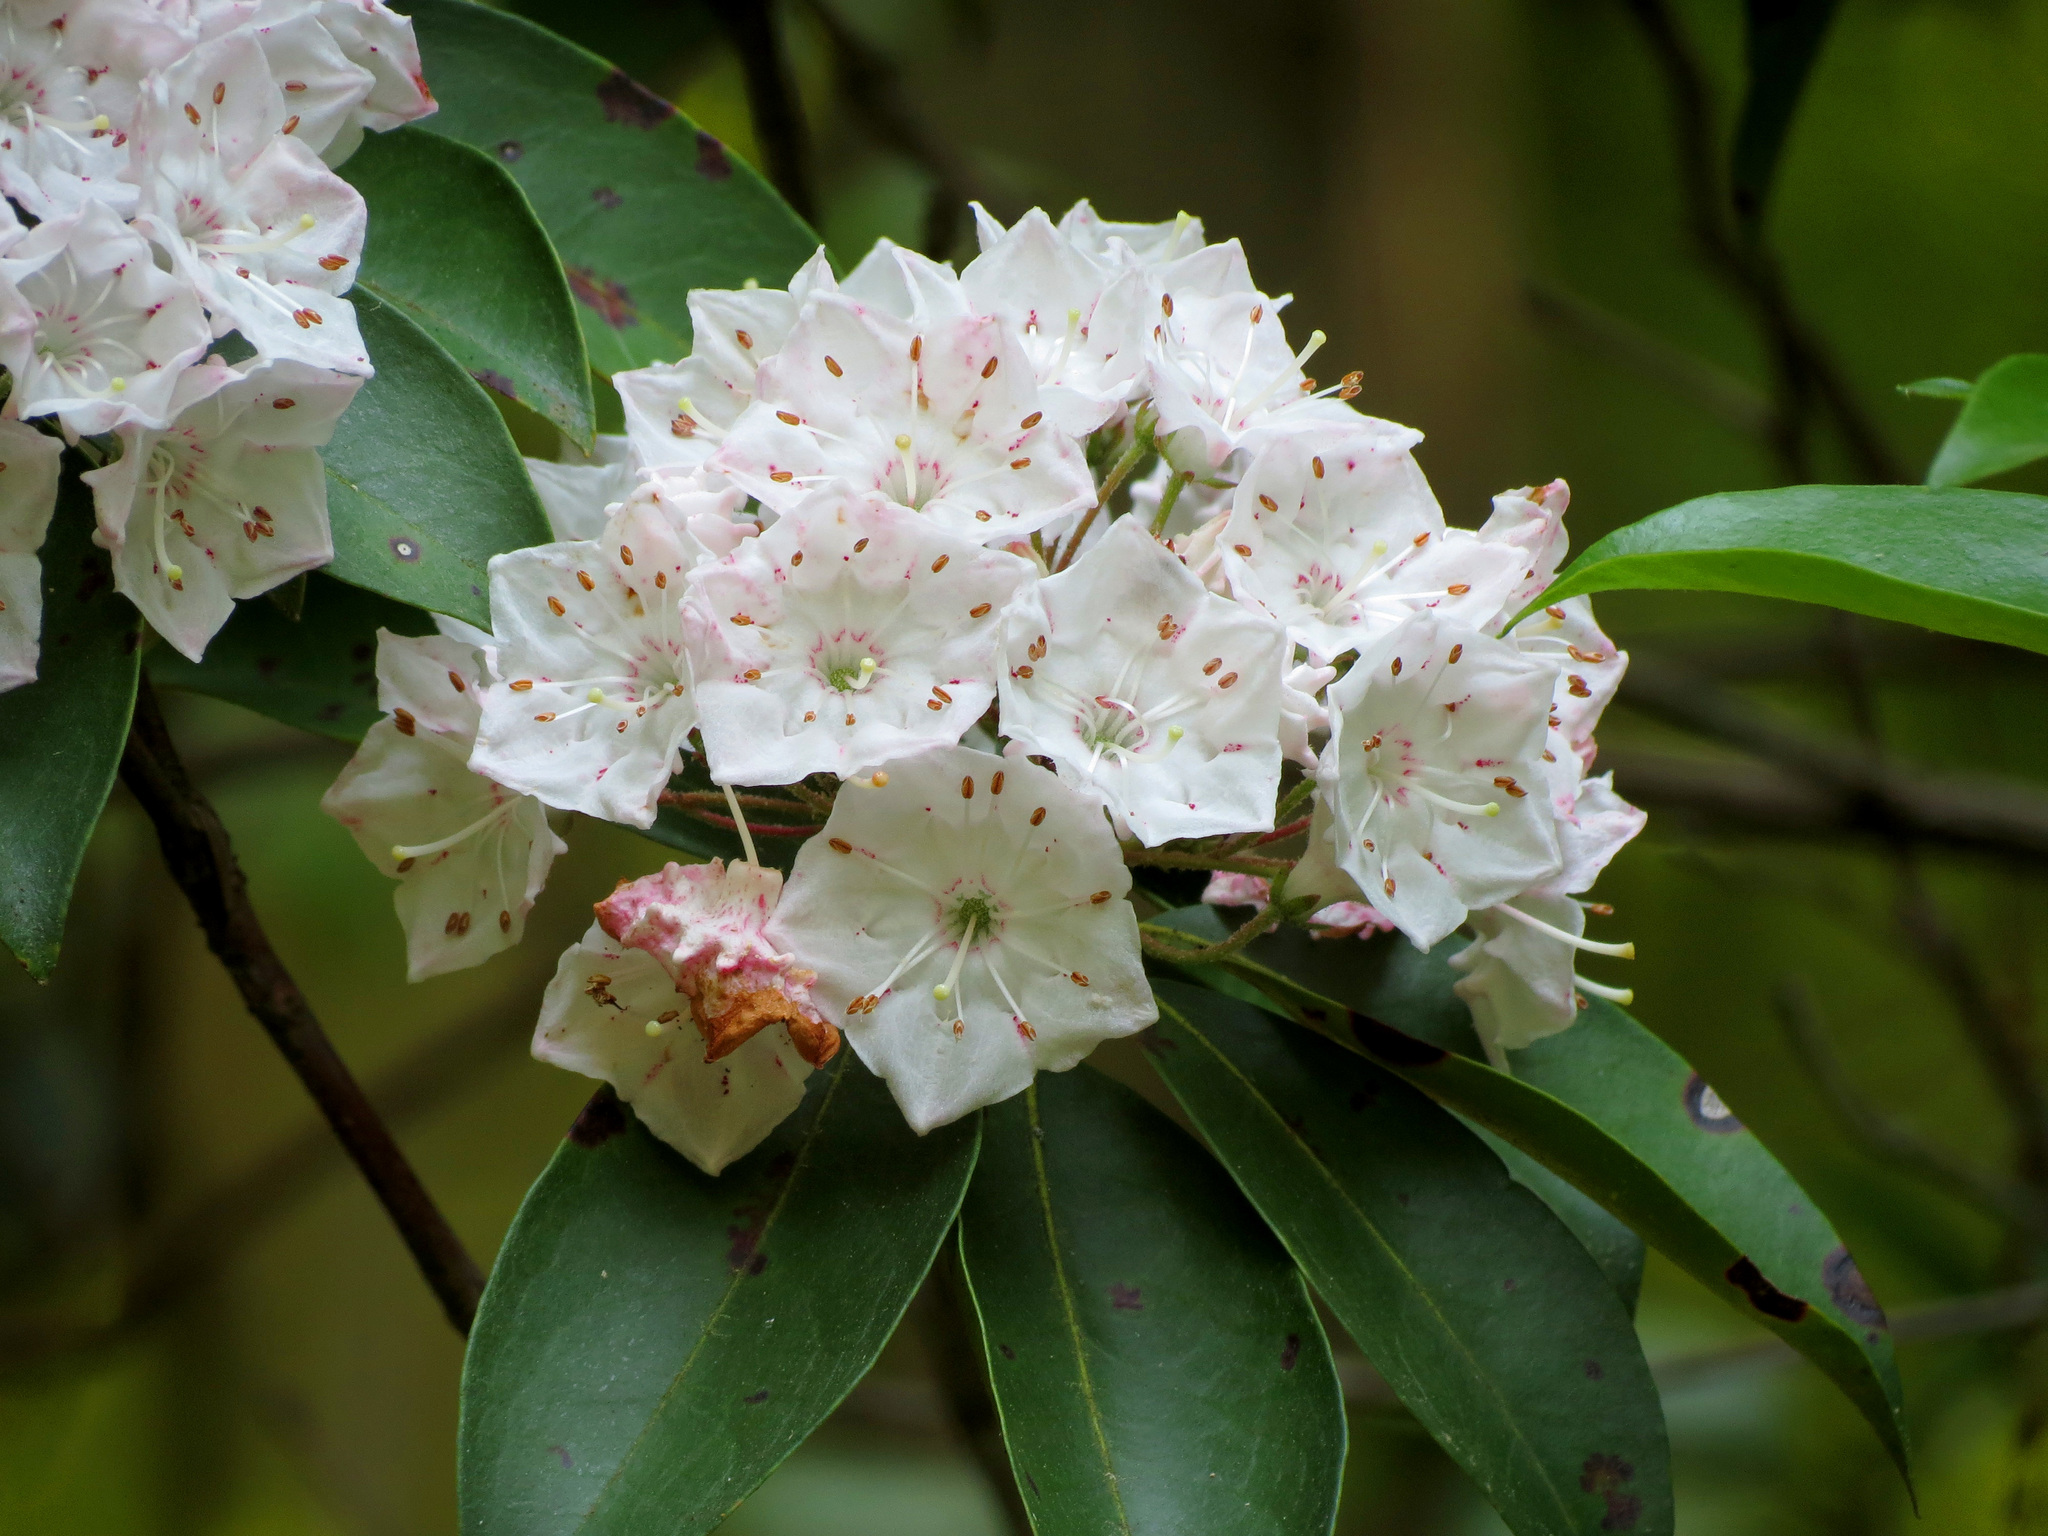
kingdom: Plantae
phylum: Tracheophyta
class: Magnoliopsida
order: Ericales
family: Ericaceae
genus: Kalmia
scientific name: Kalmia latifolia
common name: Mountain-laurel
